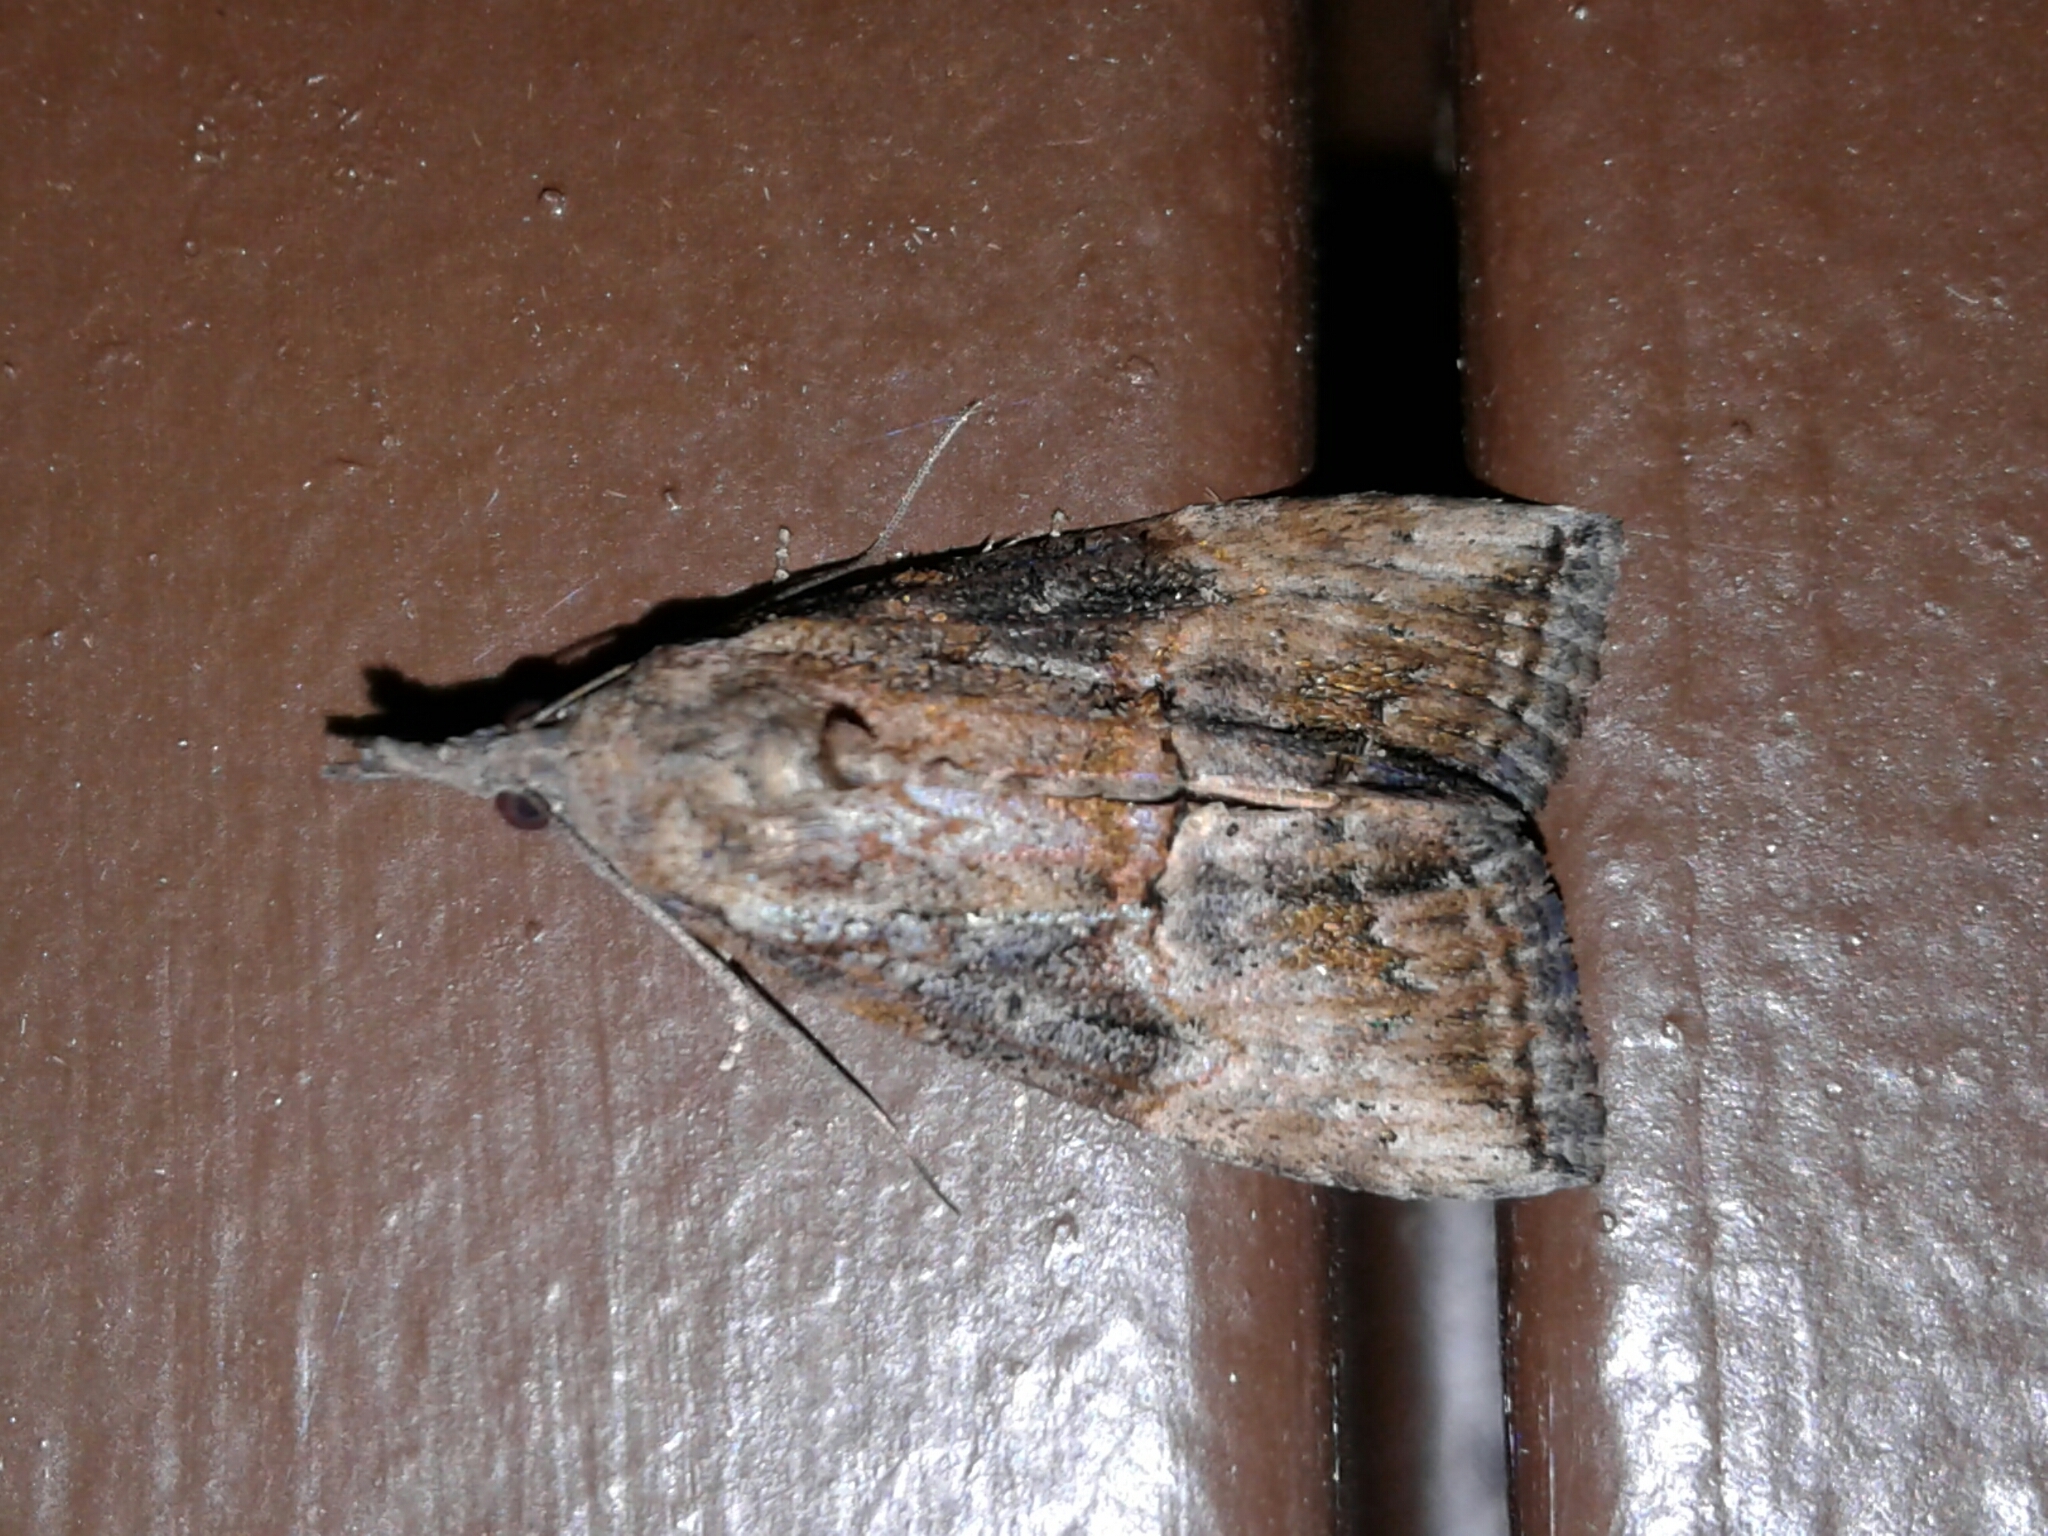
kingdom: Animalia
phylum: Arthropoda
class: Insecta
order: Lepidoptera
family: Erebidae
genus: Hypena
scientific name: Hypena scabra
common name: Green cloverworm
